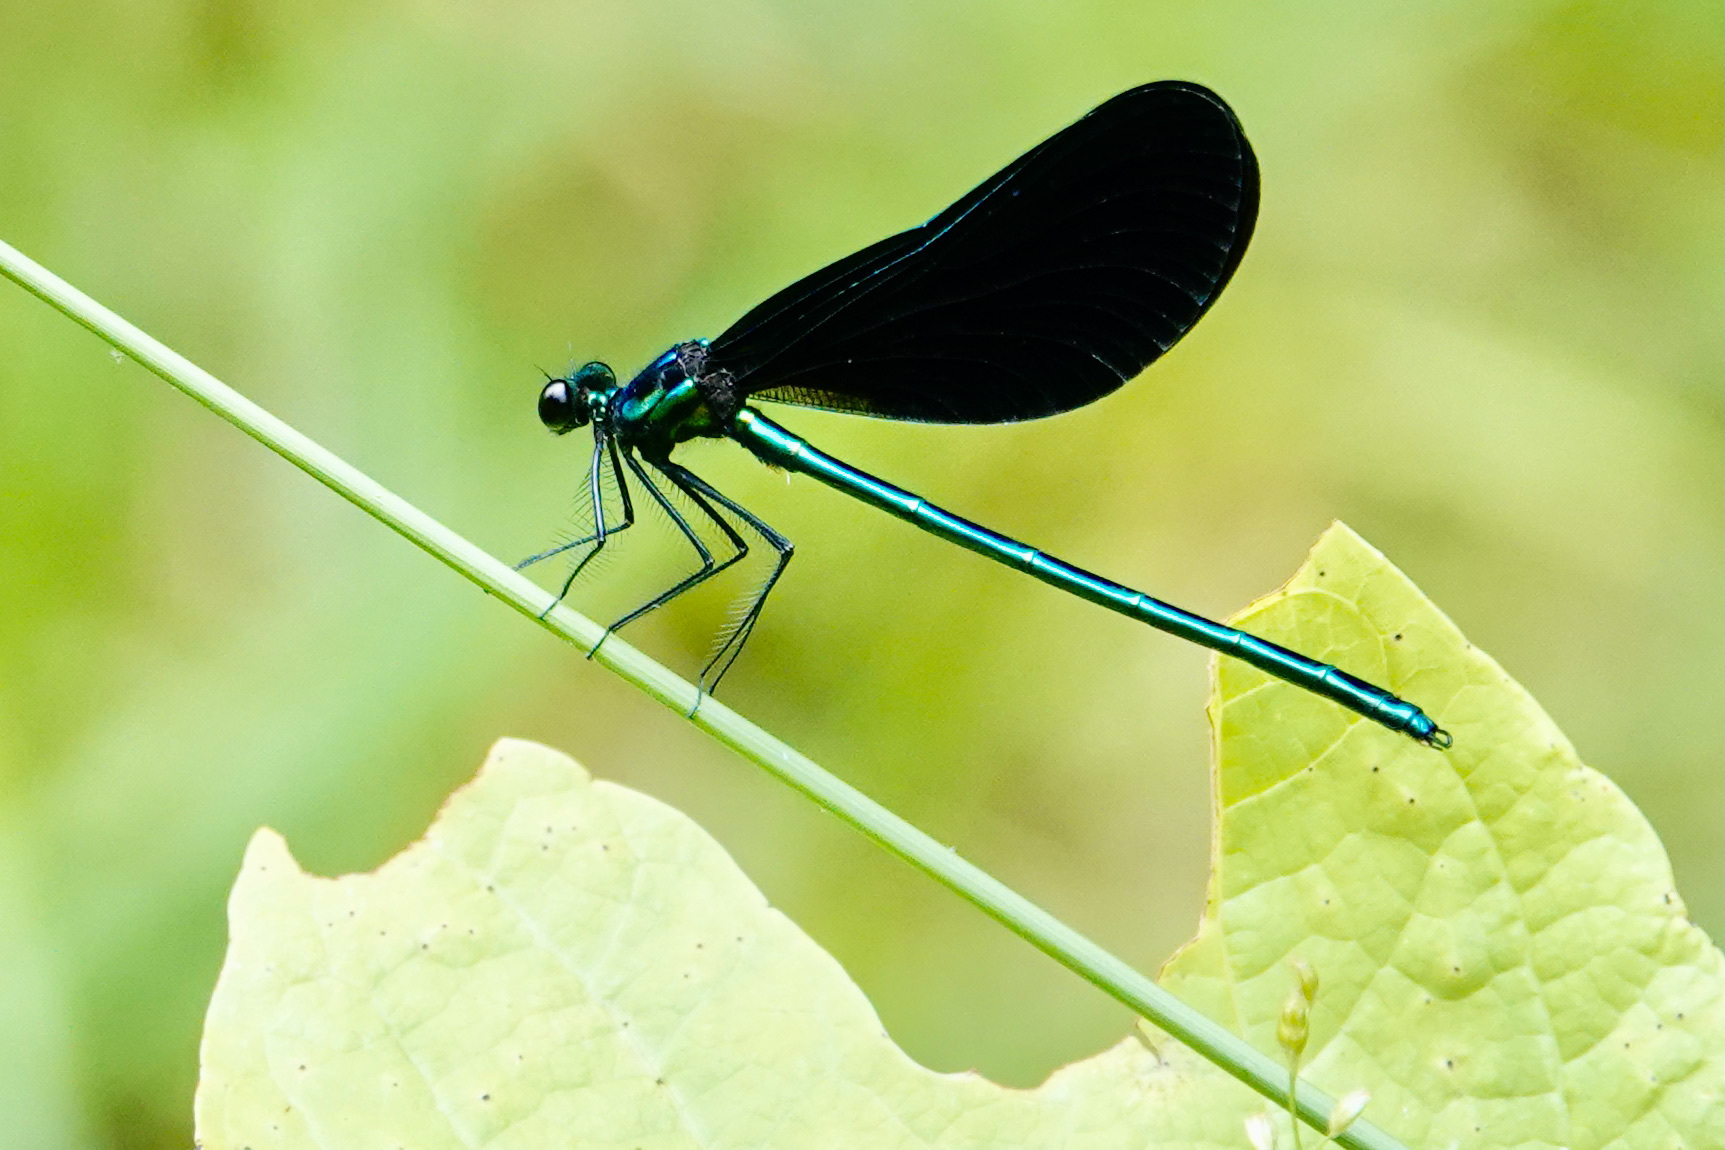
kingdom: Animalia
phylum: Arthropoda
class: Insecta
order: Odonata
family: Calopterygidae
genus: Calopteryx
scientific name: Calopteryx maculata
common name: Ebony jewelwing
